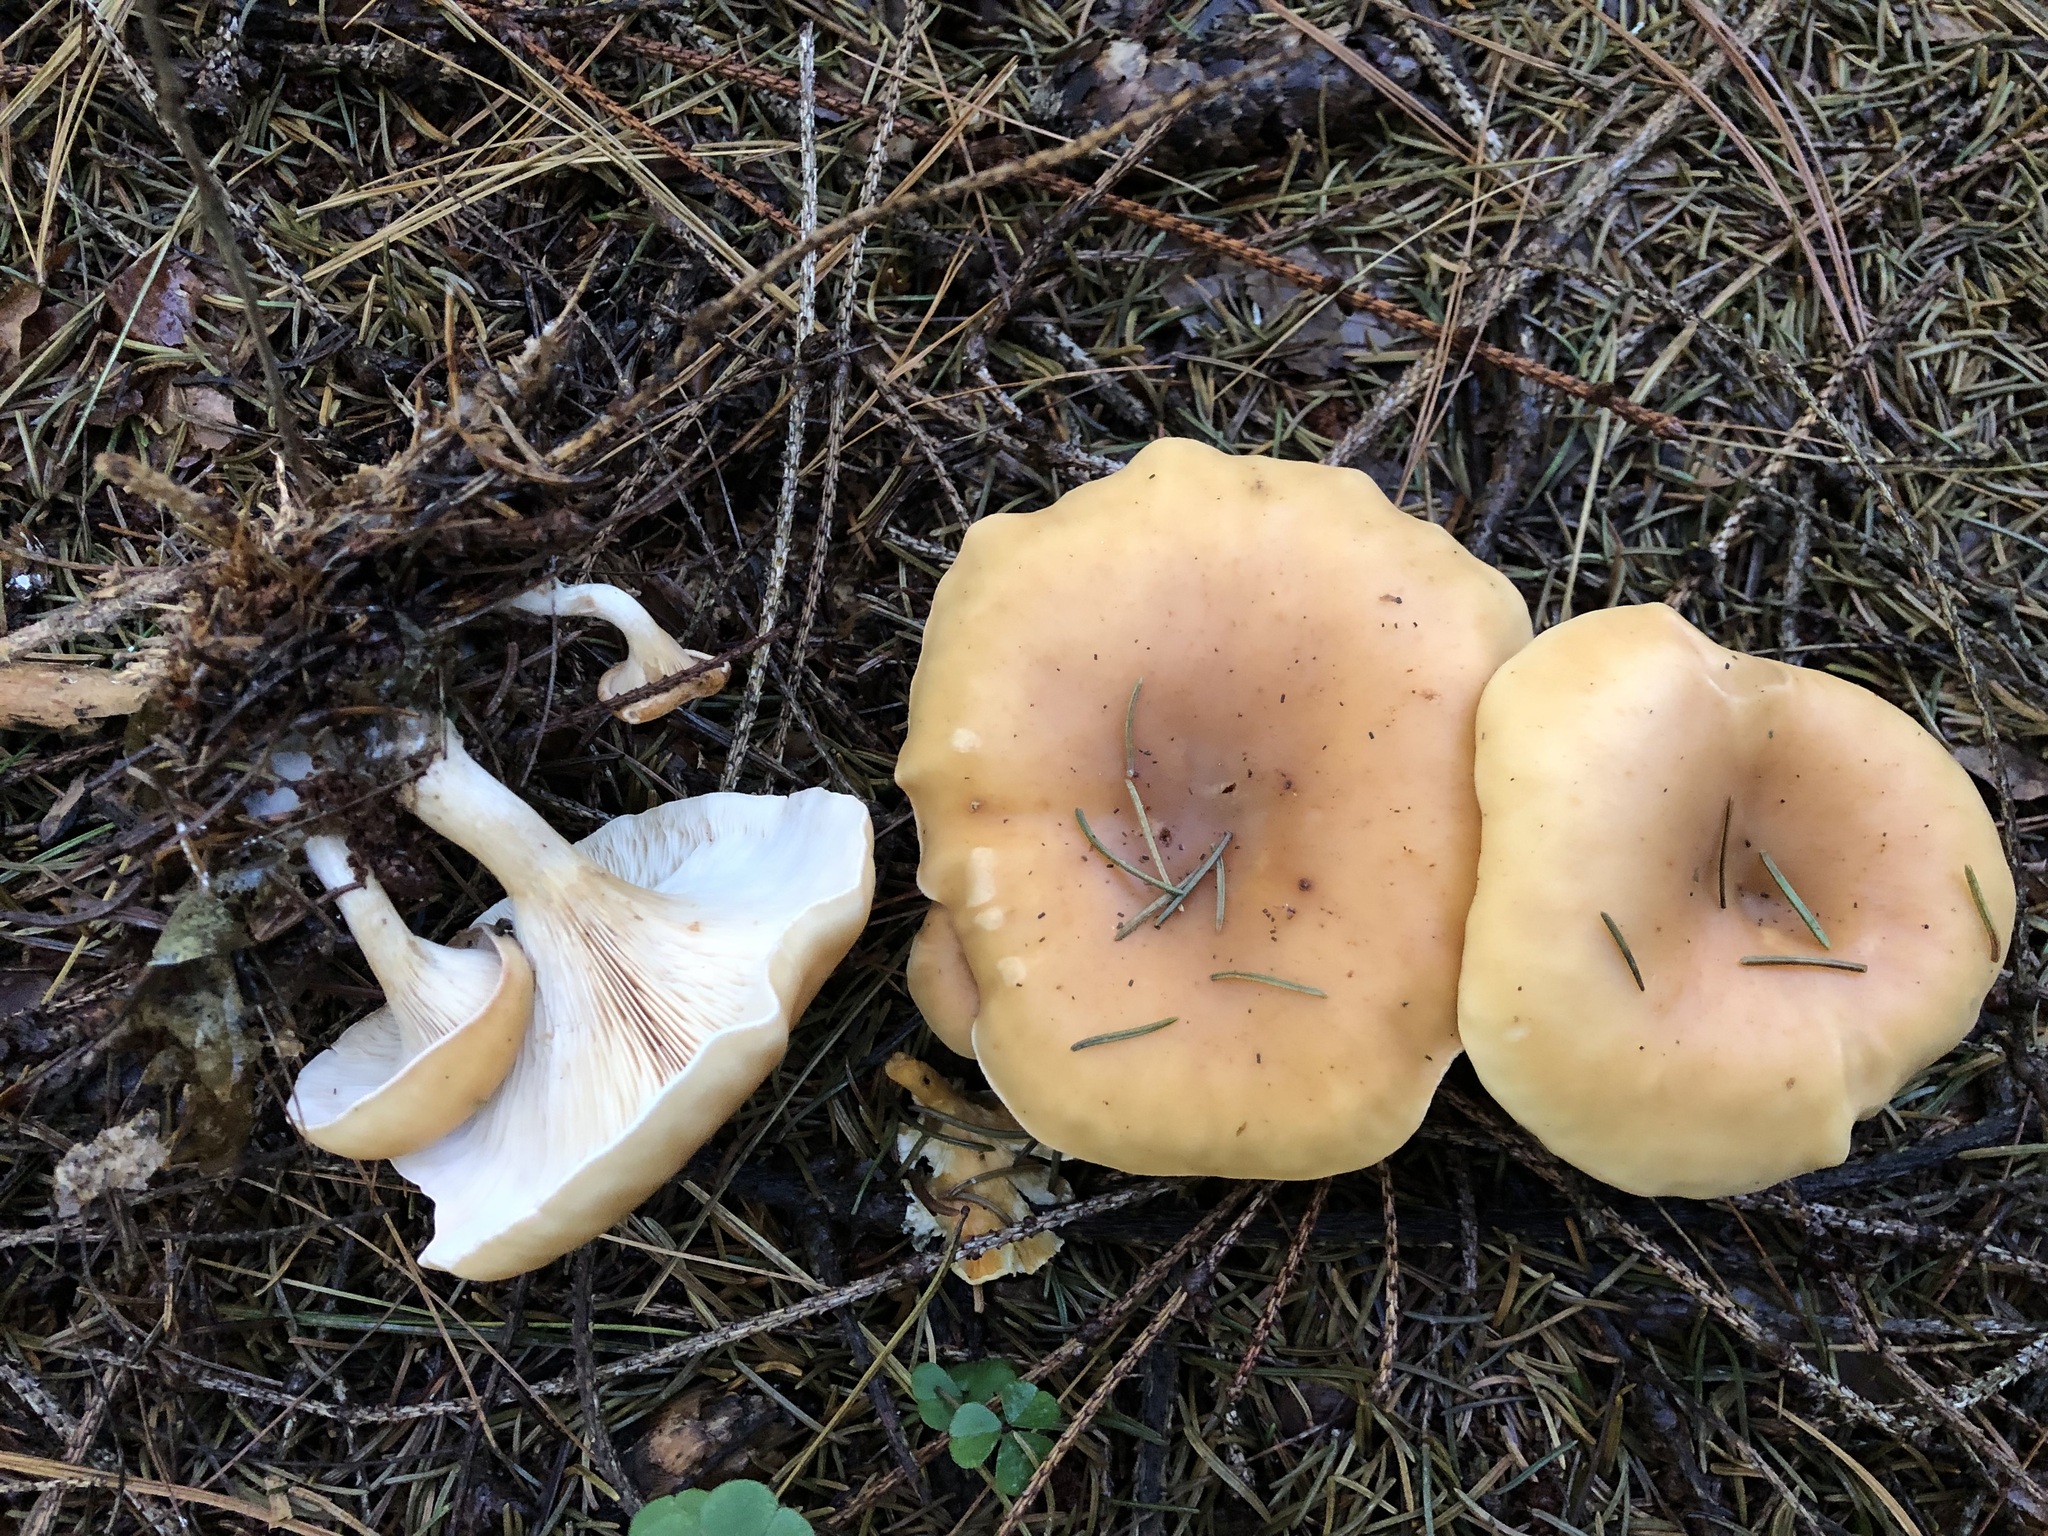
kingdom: Fungi
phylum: Basidiomycota
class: Agaricomycetes
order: Agaricales
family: Tricholomataceae
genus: Paralepista
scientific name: Paralepista flaccida
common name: Tawny funnel cap
